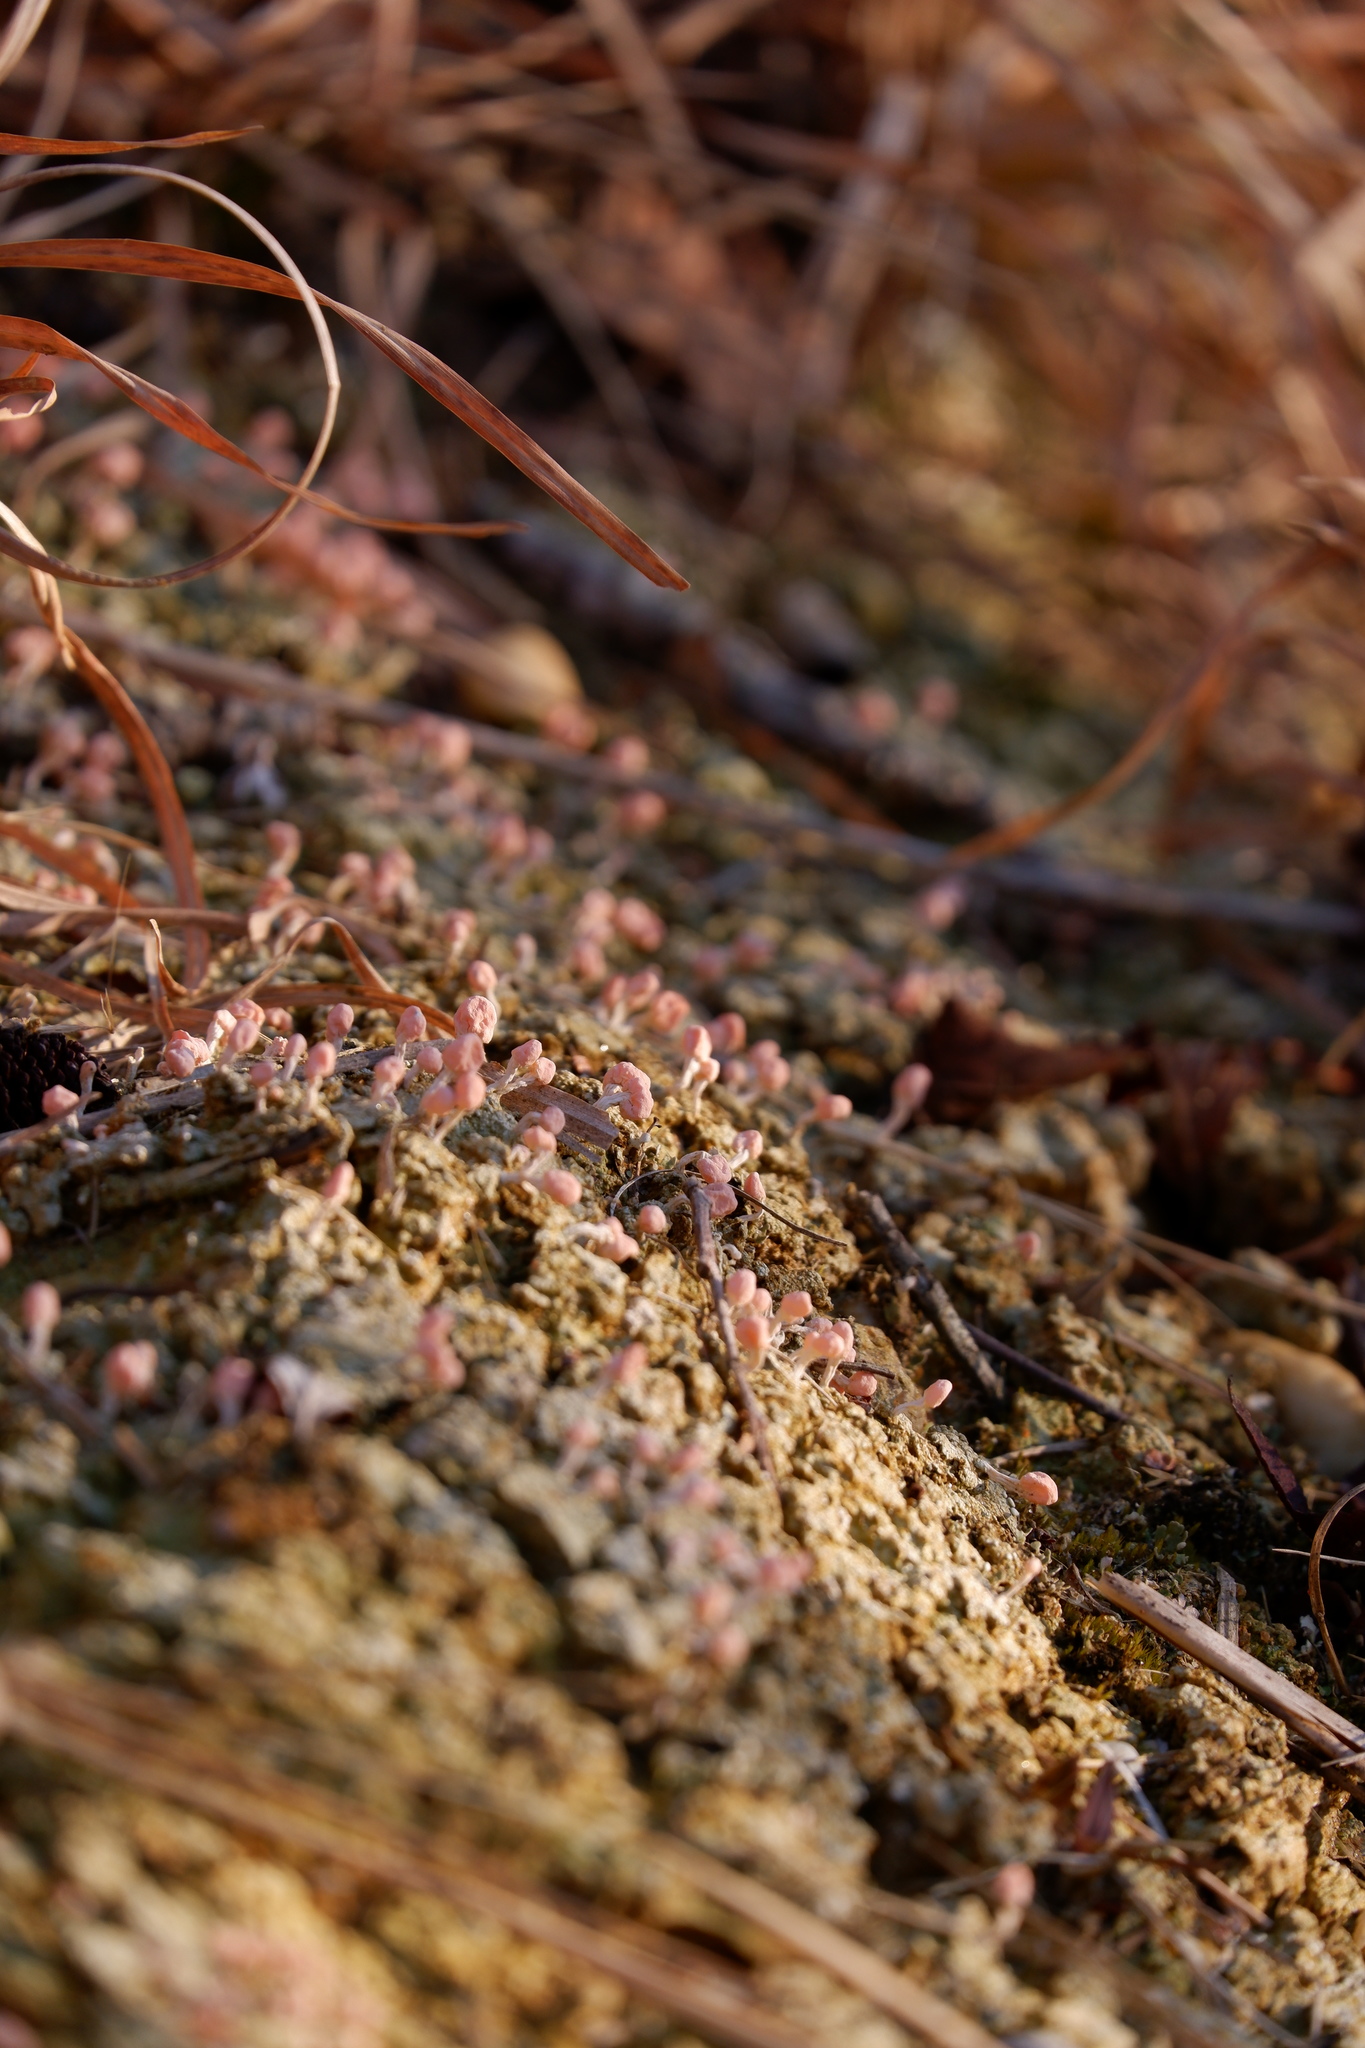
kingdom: Fungi
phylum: Ascomycota
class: Lecanoromycetes
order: Pertusariales
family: Icmadophilaceae
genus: Dibaeis
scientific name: Dibaeis baeomyces
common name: Pink earth lichen
